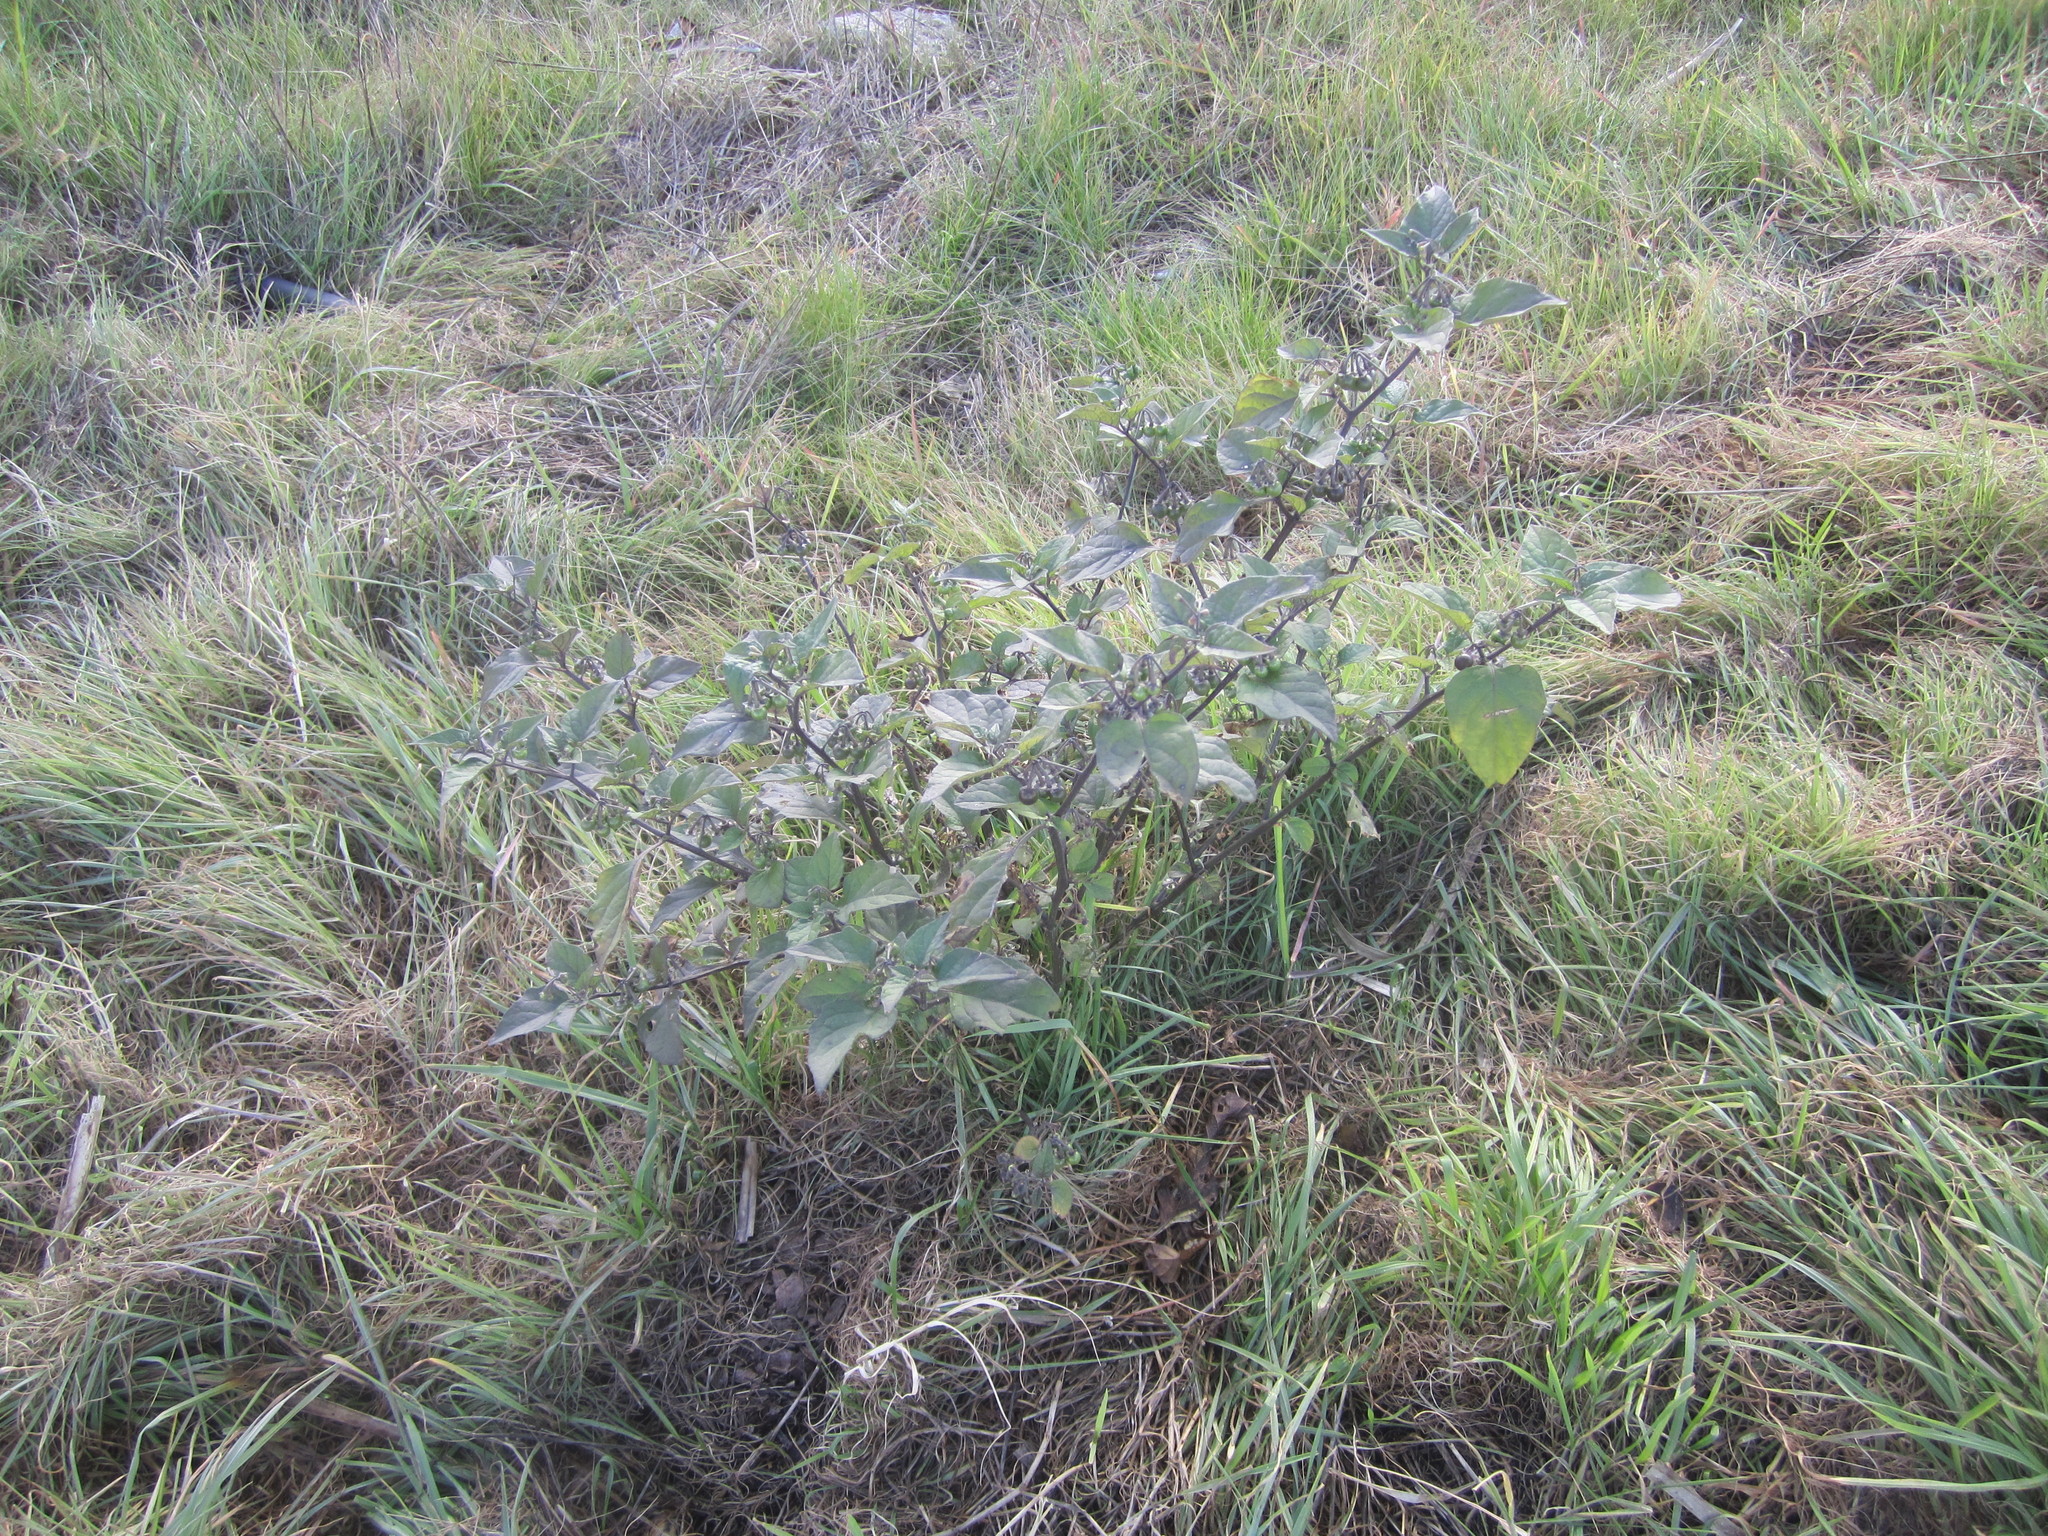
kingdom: Plantae
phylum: Tracheophyta
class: Magnoliopsida
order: Solanales
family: Solanaceae
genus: Solanum
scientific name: Solanum nigrum
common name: Black nightshade
